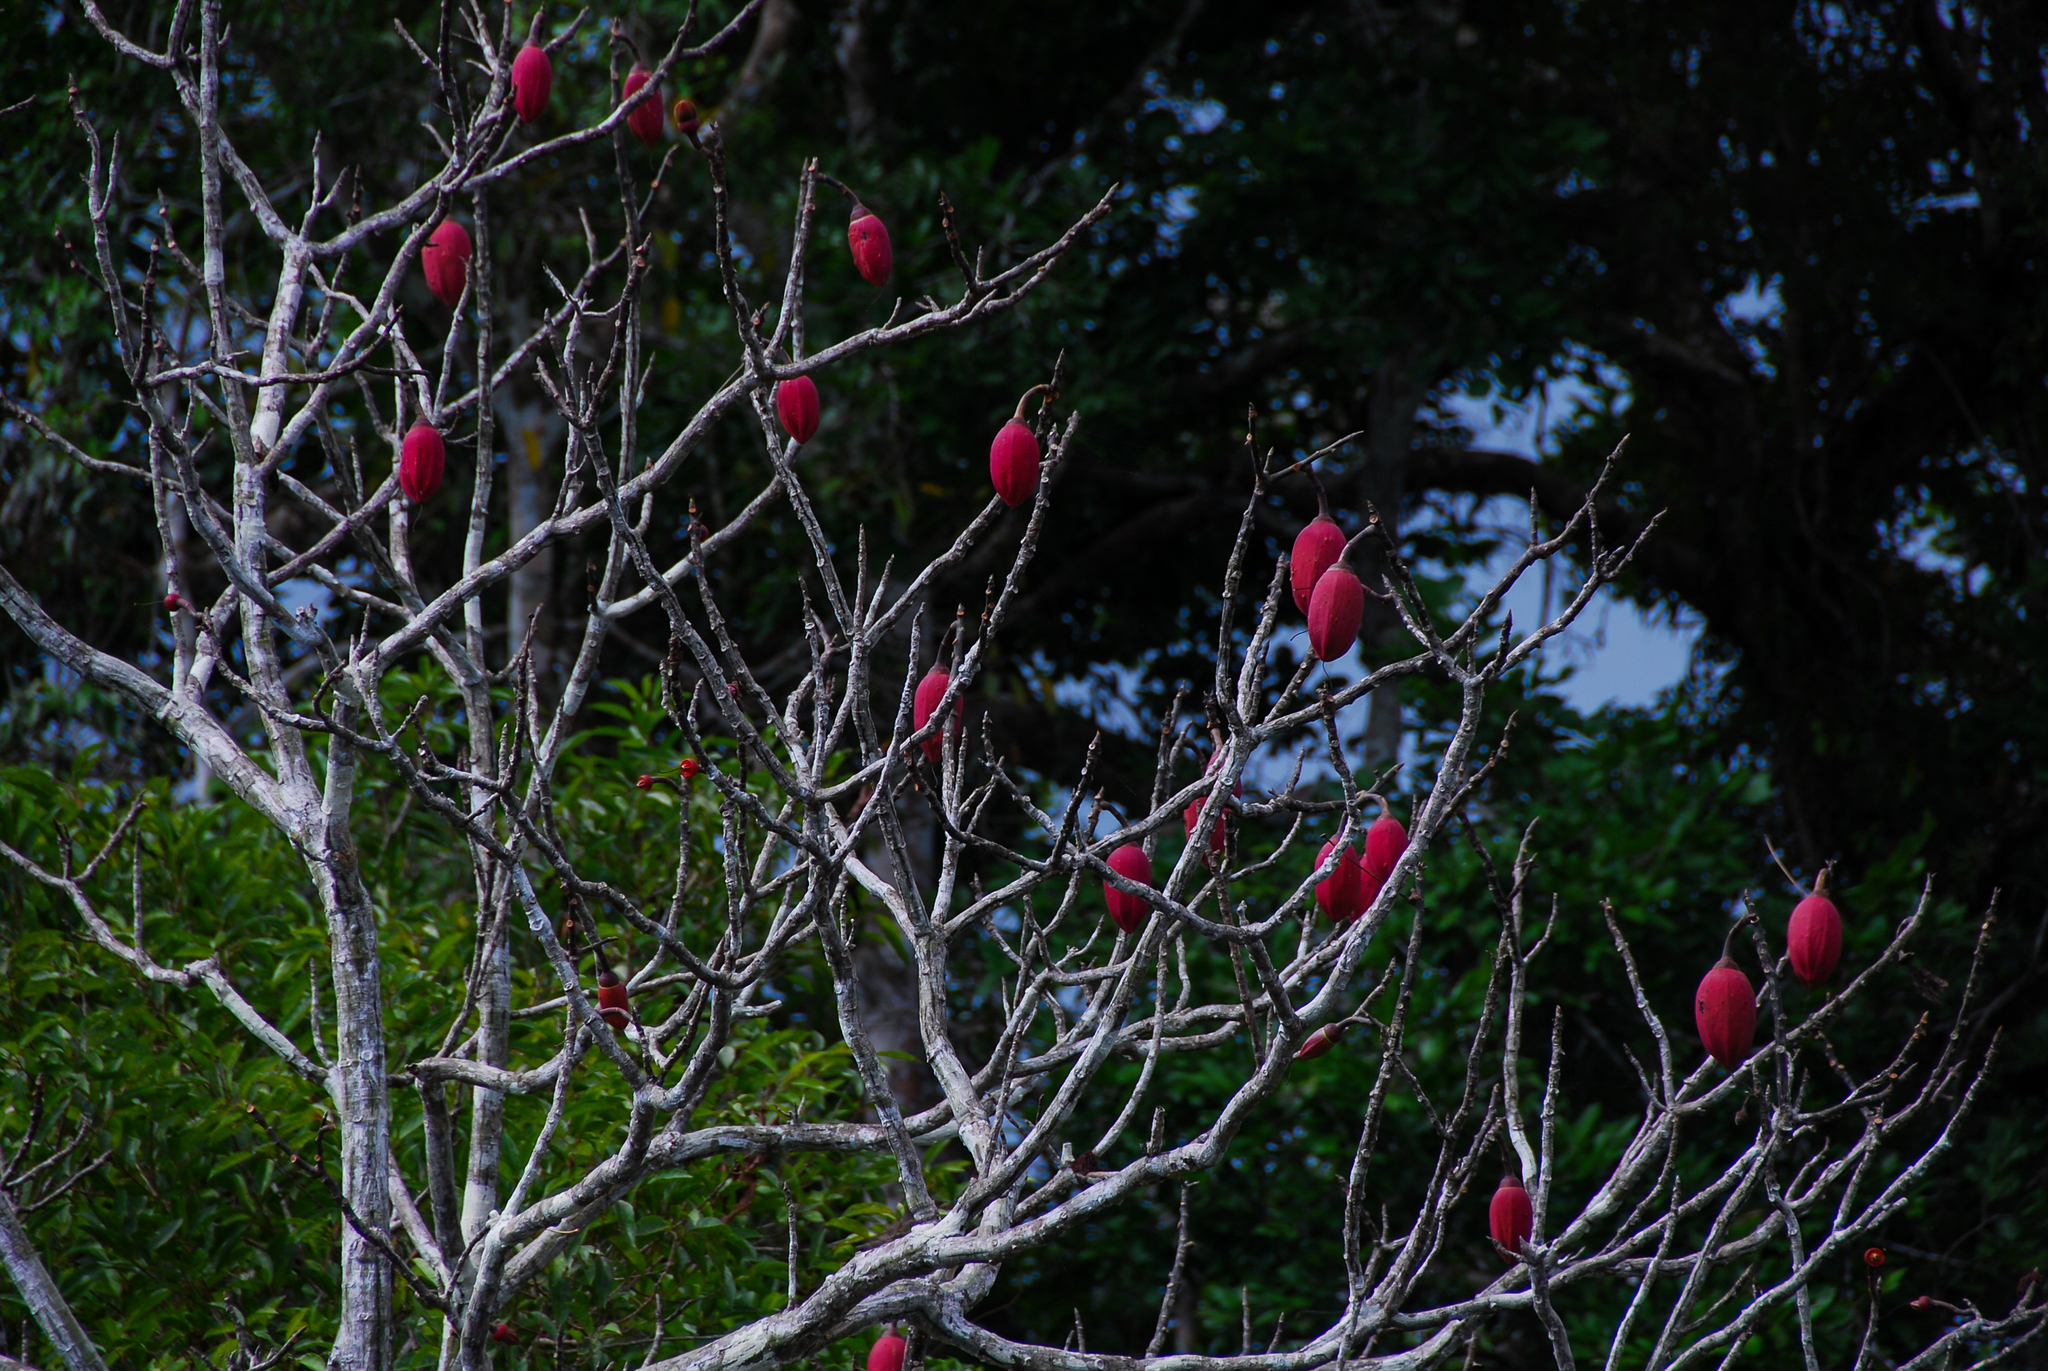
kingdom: Plantae
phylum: Tracheophyta
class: Magnoliopsida
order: Malvales
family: Malvaceae
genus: Pseudobombax
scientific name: Pseudobombax munguba
